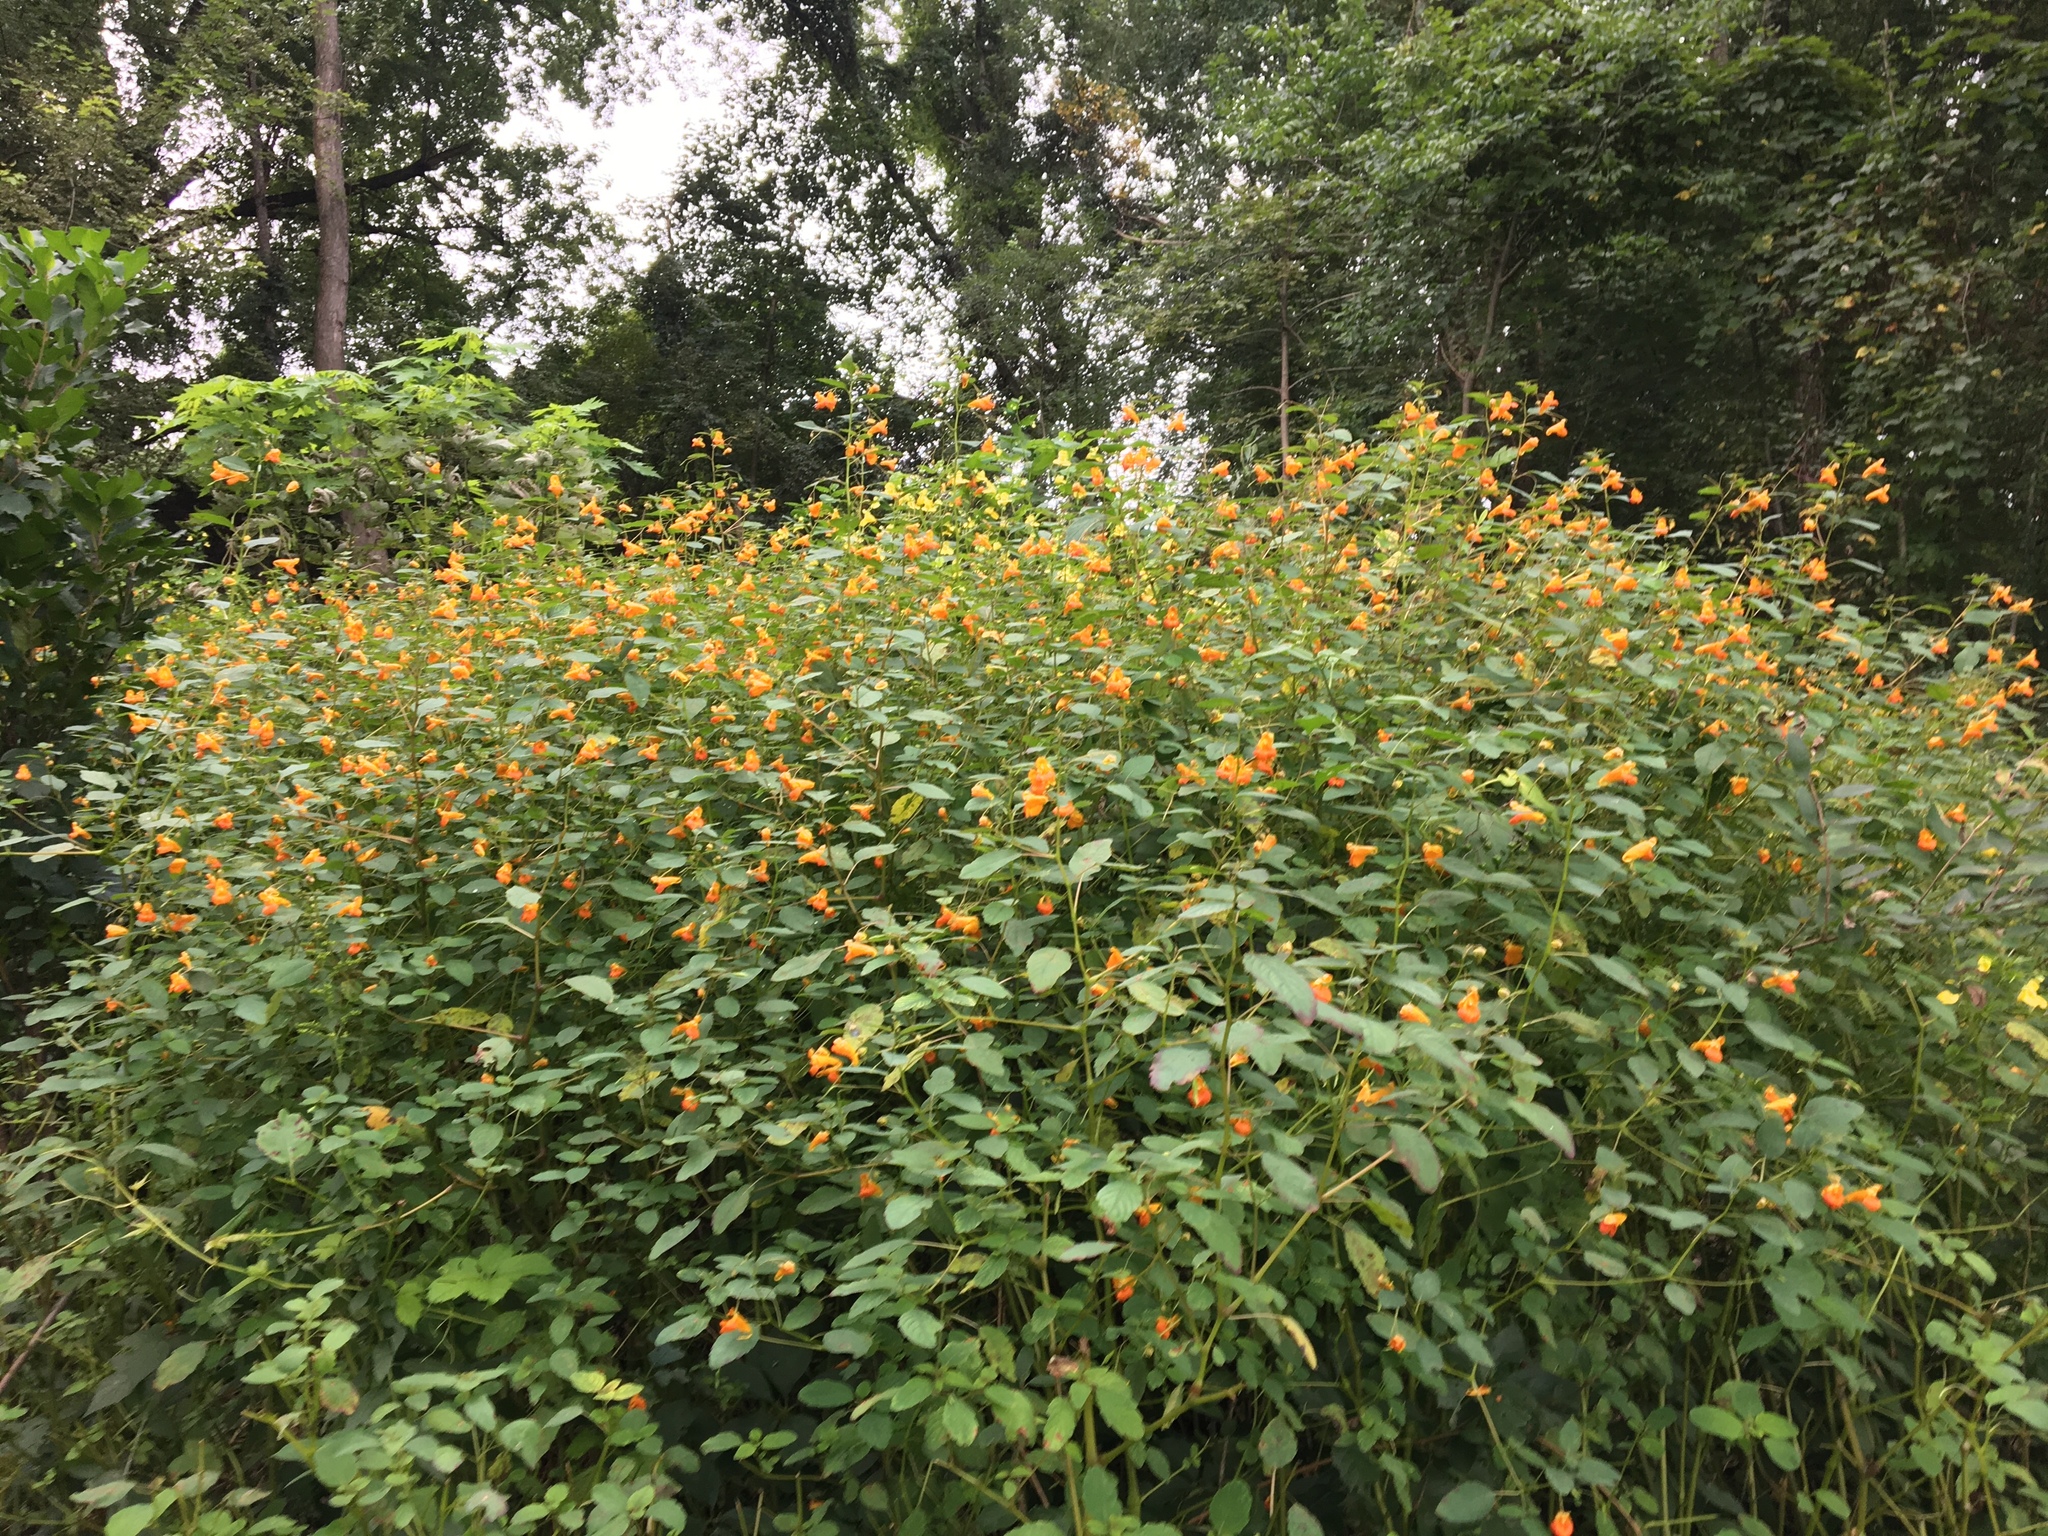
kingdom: Plantae
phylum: Tracheophyta
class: Magnoliopsida
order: Ericales
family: Balsaminaceae
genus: Impatiens
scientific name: Impatiens capensis
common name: Orange balsam
